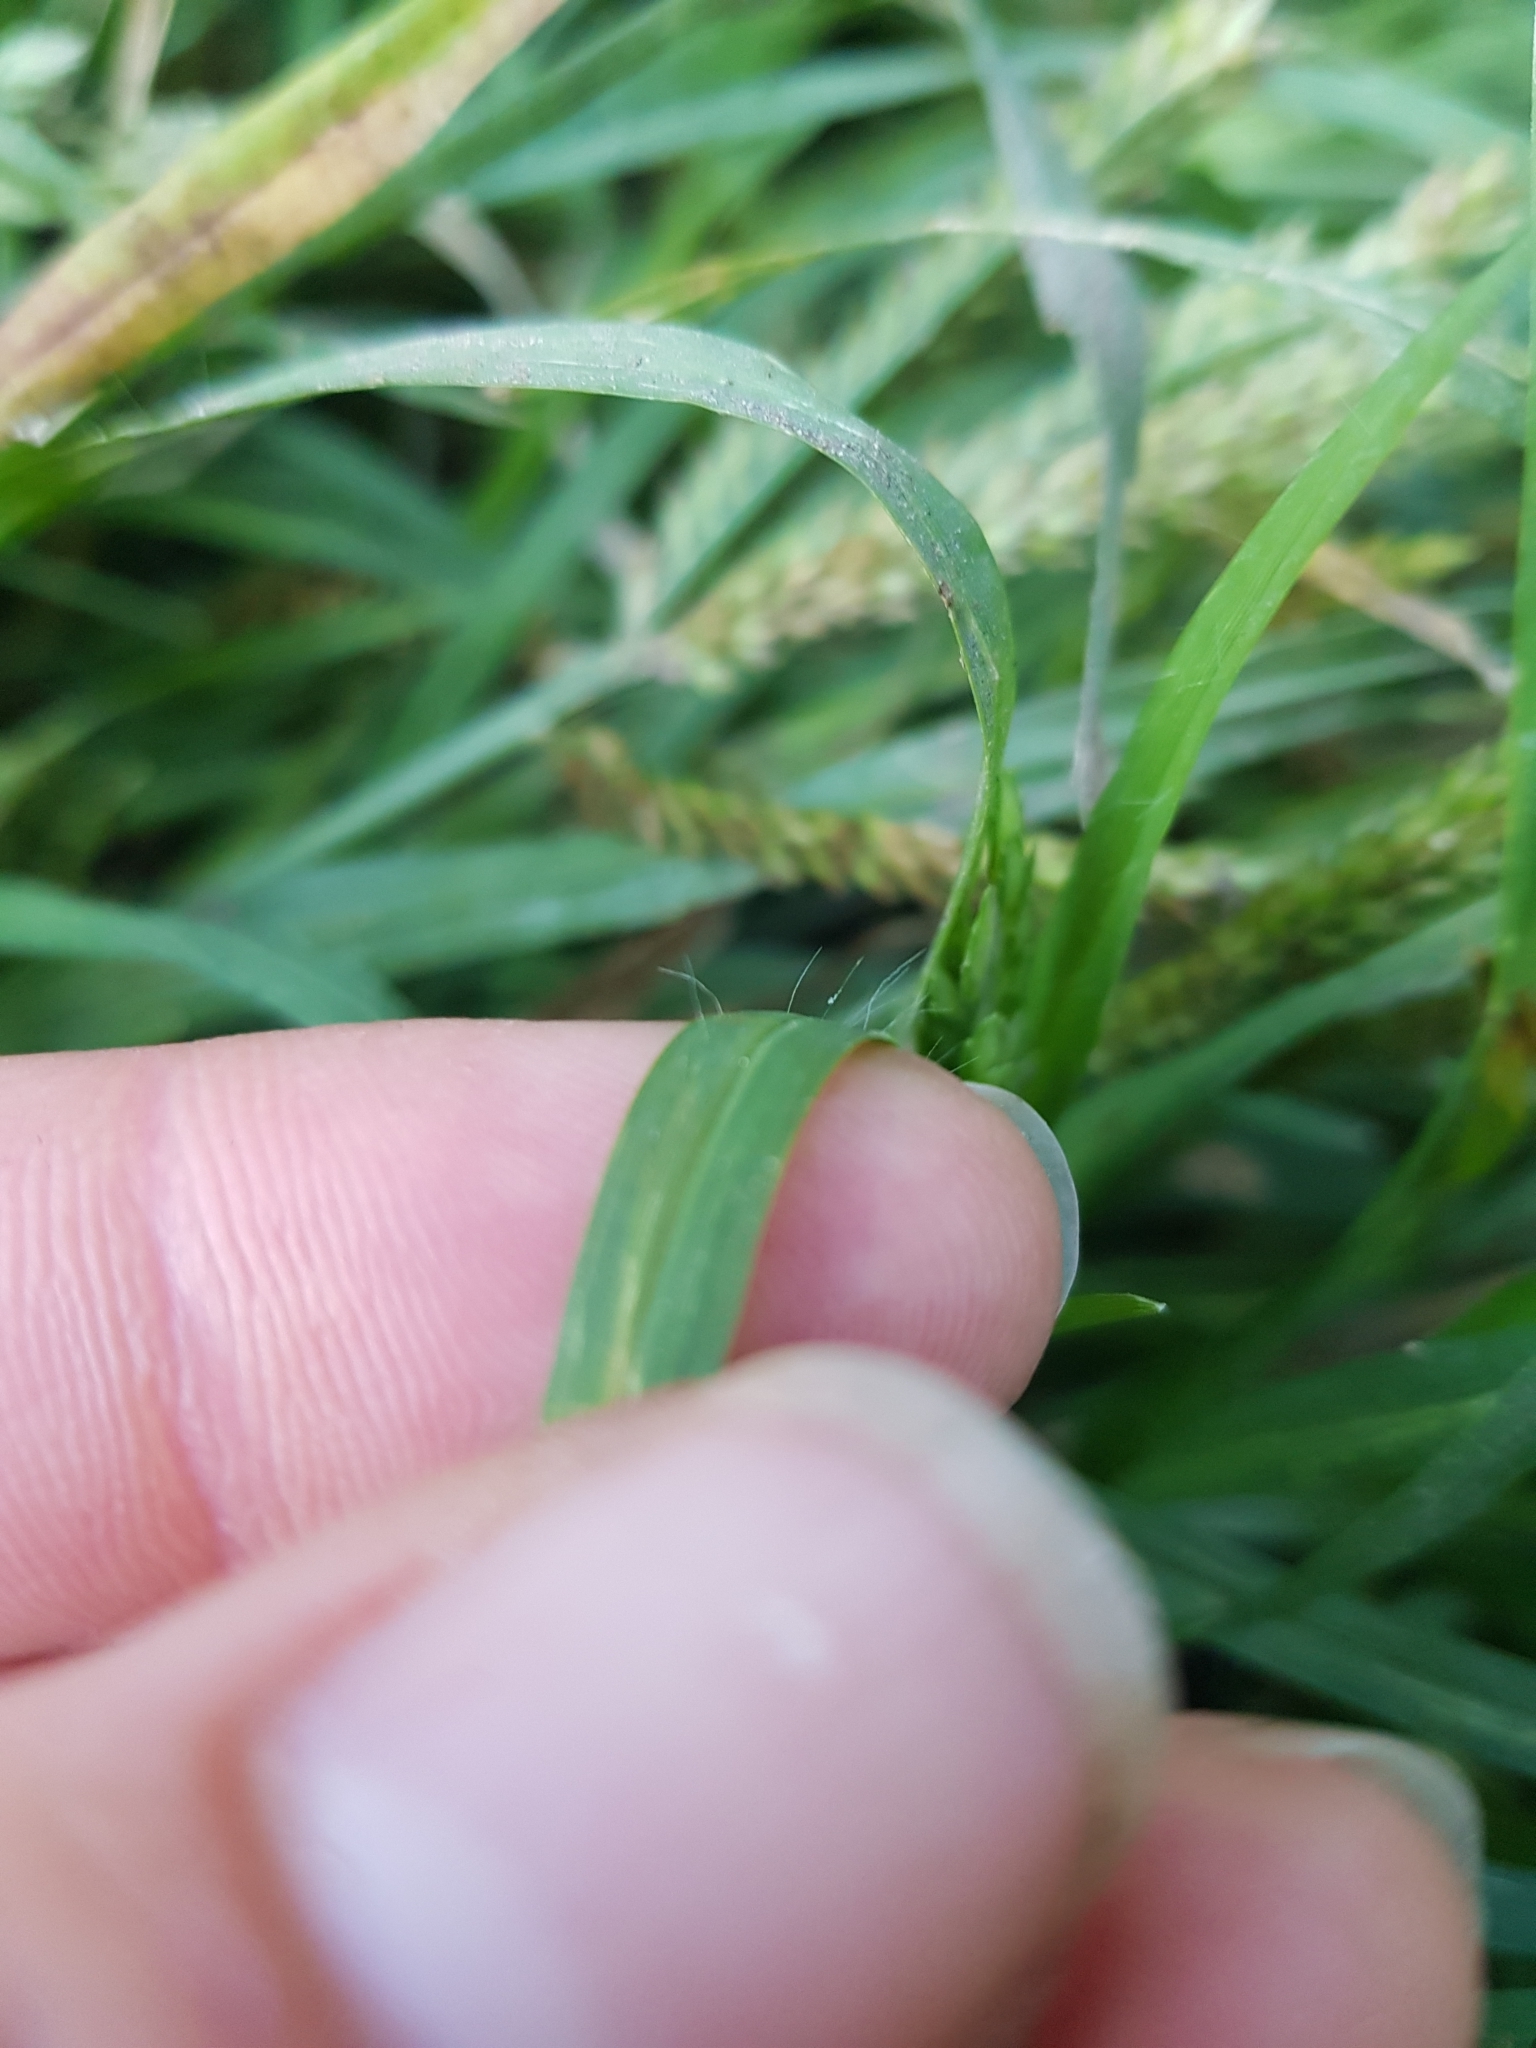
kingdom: Plantae
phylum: Tracheophyta
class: Liliopsida
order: Poales
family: Poaceae
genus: Eleusine
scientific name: Eleusine indica
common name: Yard-grass
